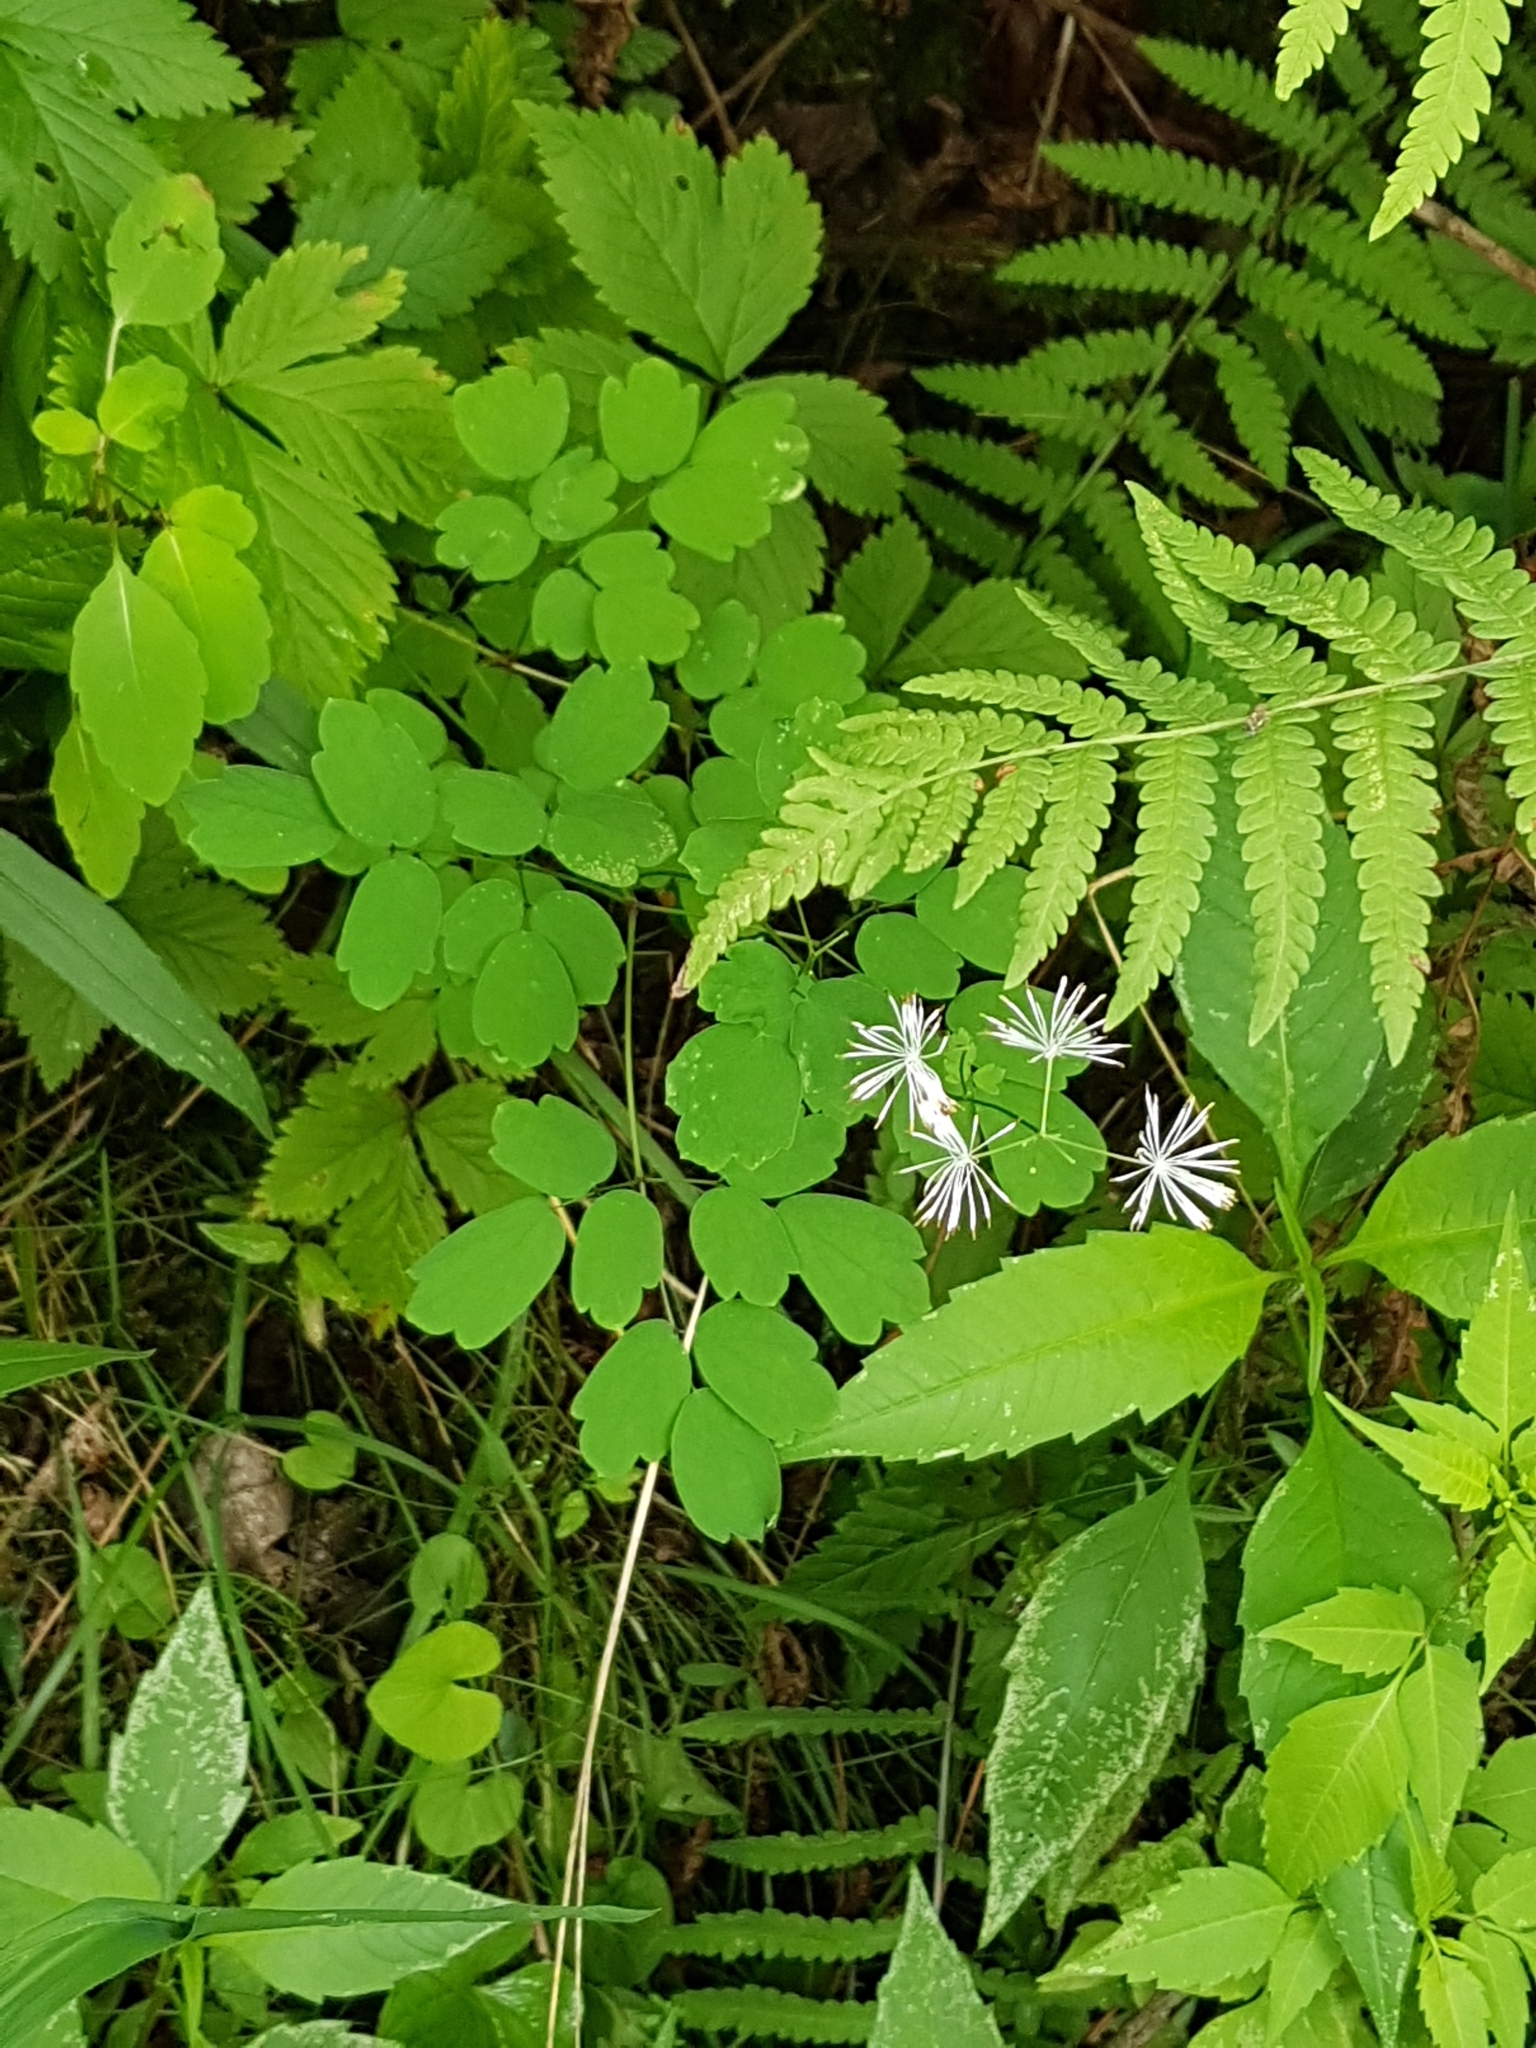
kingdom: Plantae
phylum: Tracheophyta
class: Magnoliopsida
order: Ranunculales
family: Ranunculaceae
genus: Thalictrum
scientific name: Thalictrum pubescens
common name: King-of-the-meadow
